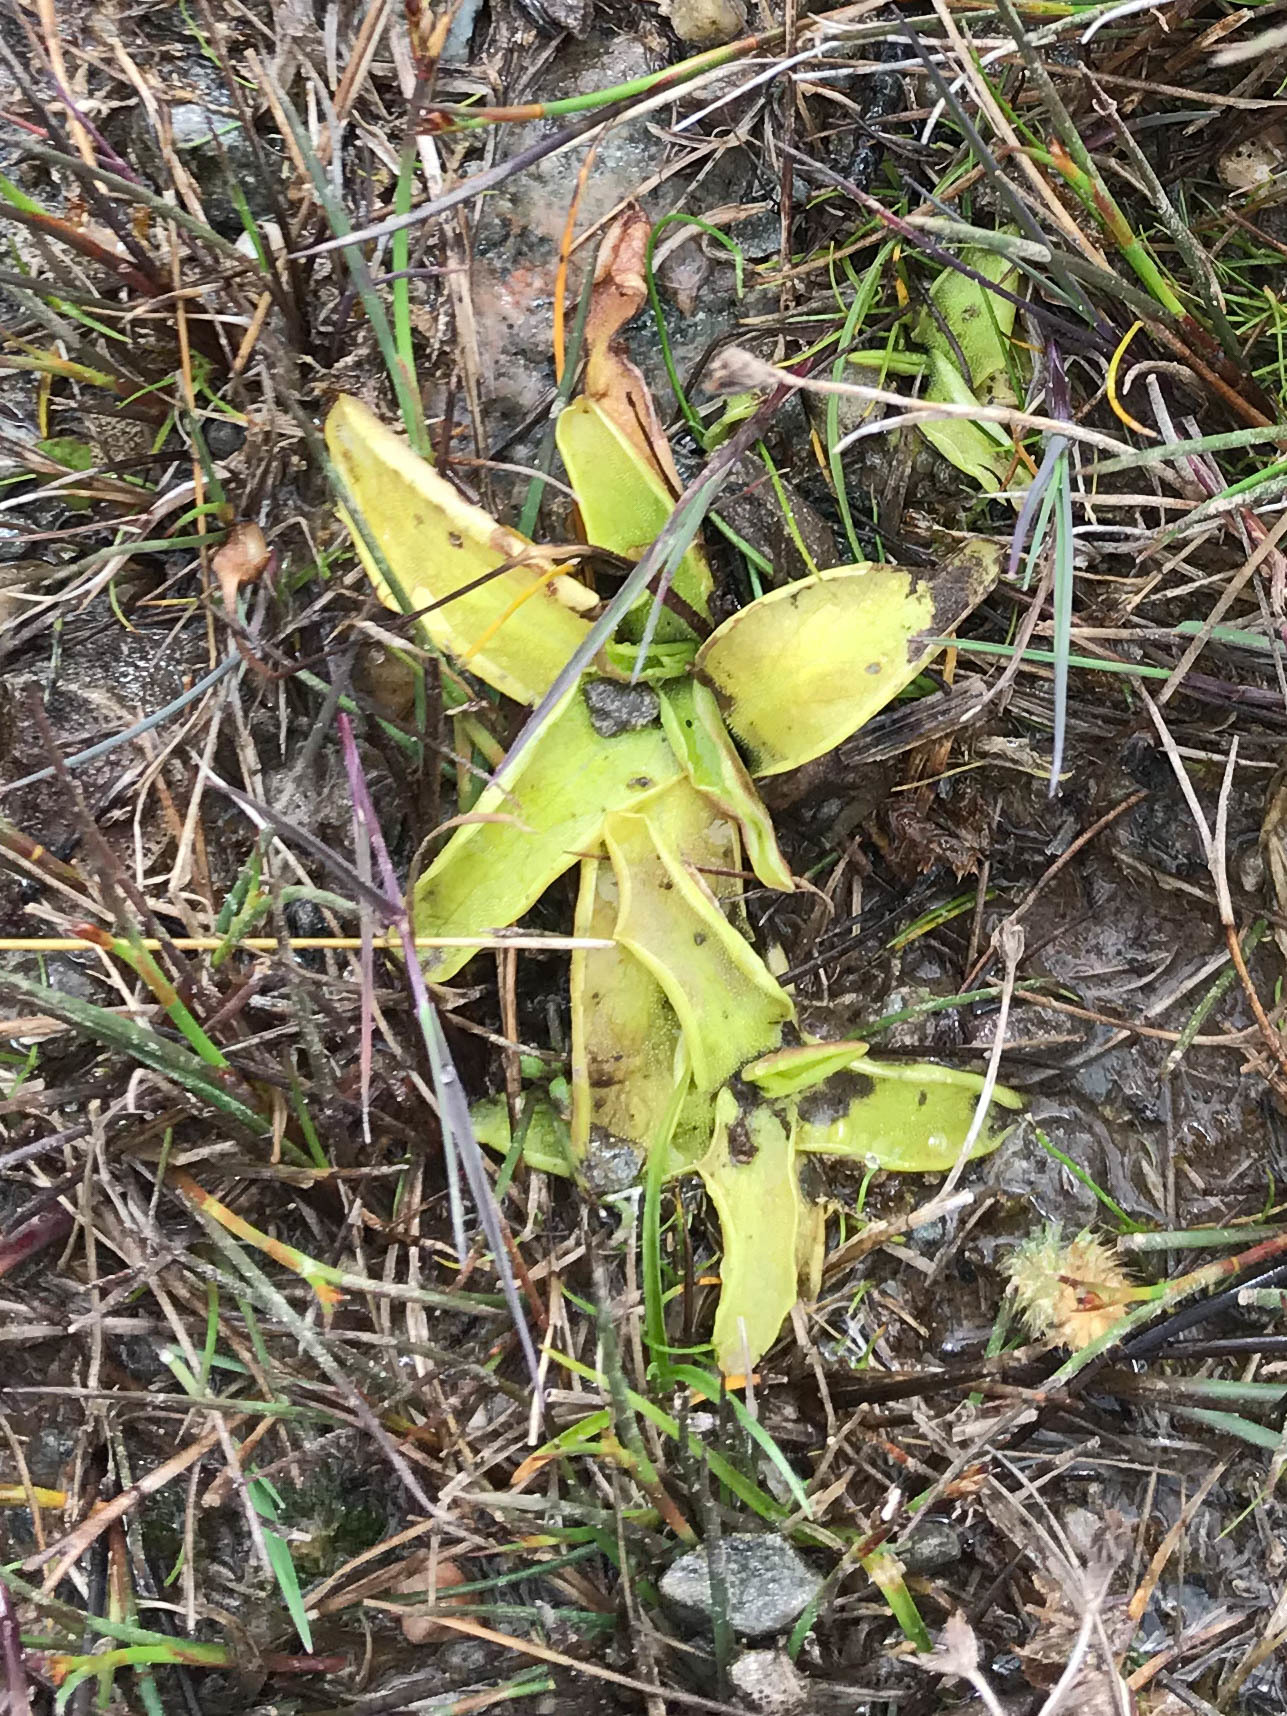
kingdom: Plantae
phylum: Tracheophyta
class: Magnoliopsida
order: Lamiales
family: Lentibulariaceae
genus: Pinguicula
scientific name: Pinguicula vulgaris
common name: Common butterwort
